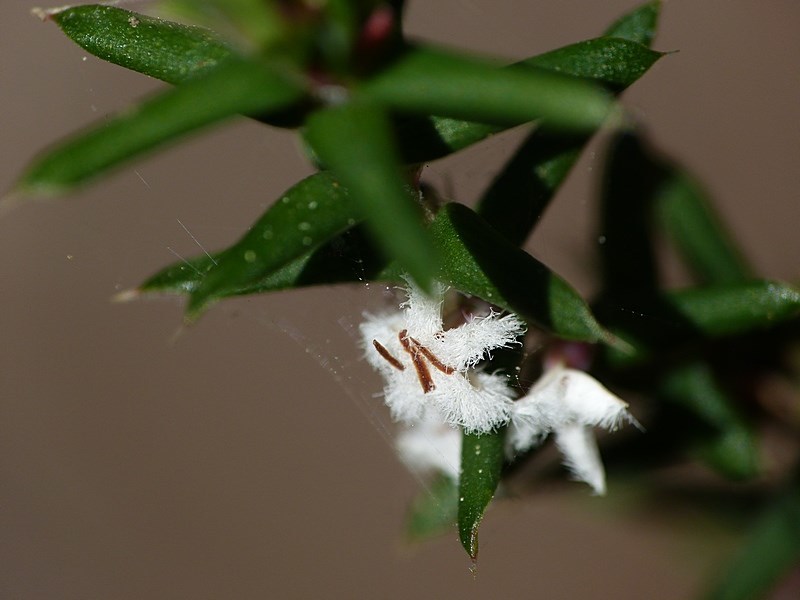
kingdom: Plantae
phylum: Tracheophyta
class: Magnoliopsida
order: Ericales
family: Ericaceae
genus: Styphelia
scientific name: Styphelia ericoides
